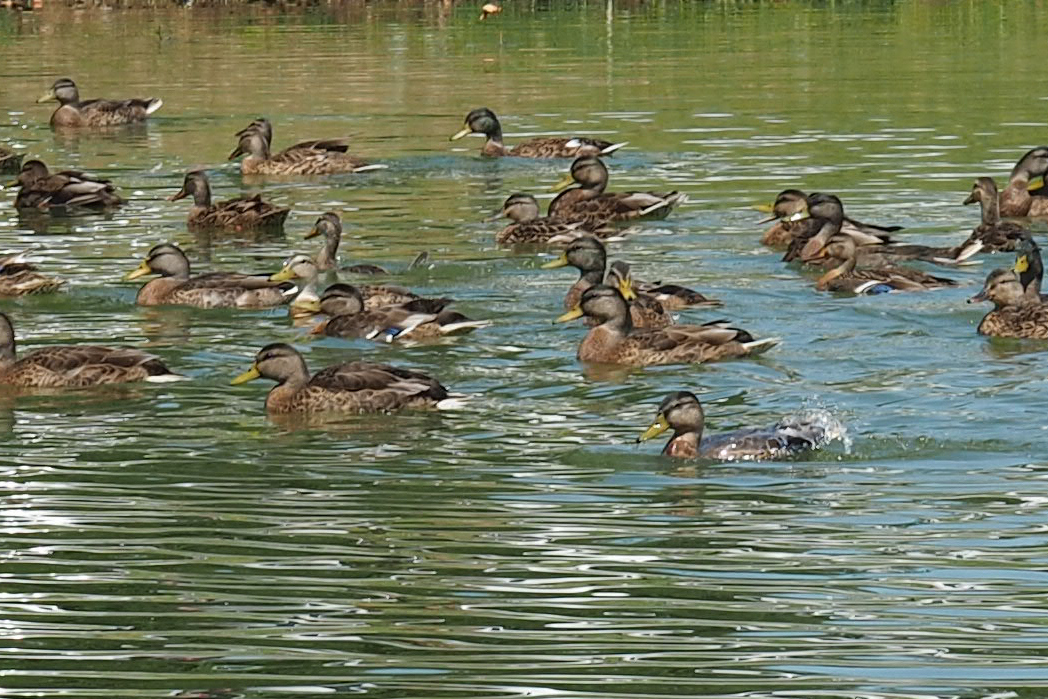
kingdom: Animalia
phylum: Chordata
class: Aves
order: Anseriformes
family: Anatidae
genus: Anas
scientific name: Anas platyrhynchos
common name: Mallard
